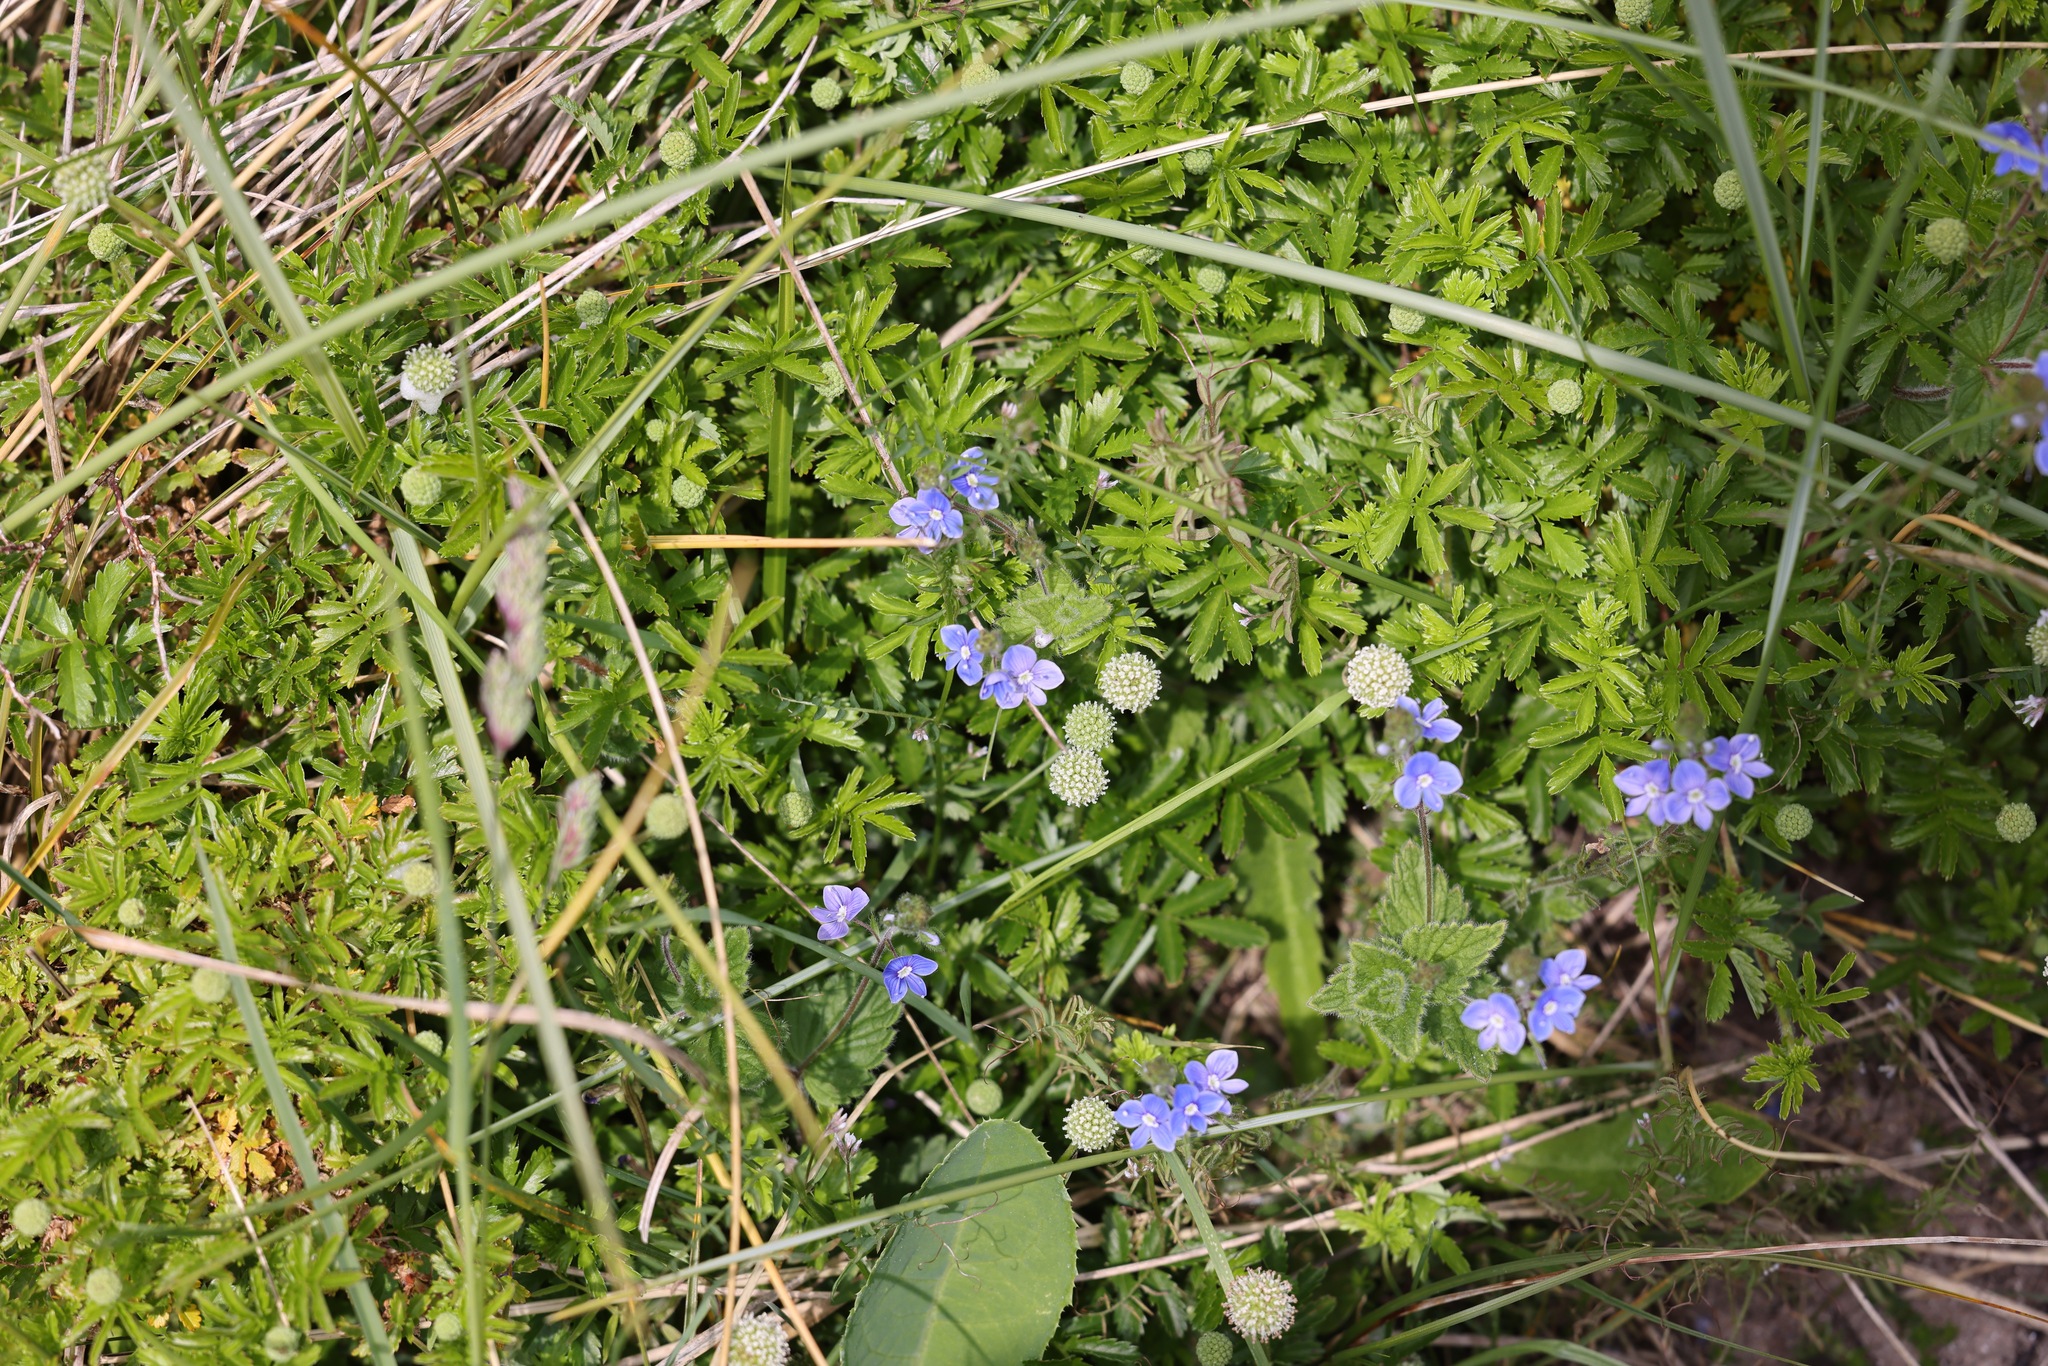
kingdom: Plantae
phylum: Tracheophyta
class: Magnoliopsida
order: Rosales
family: Rosaceae
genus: Acaena
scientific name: Acaena novae-zelandiae
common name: Pirri-pirri-bur
